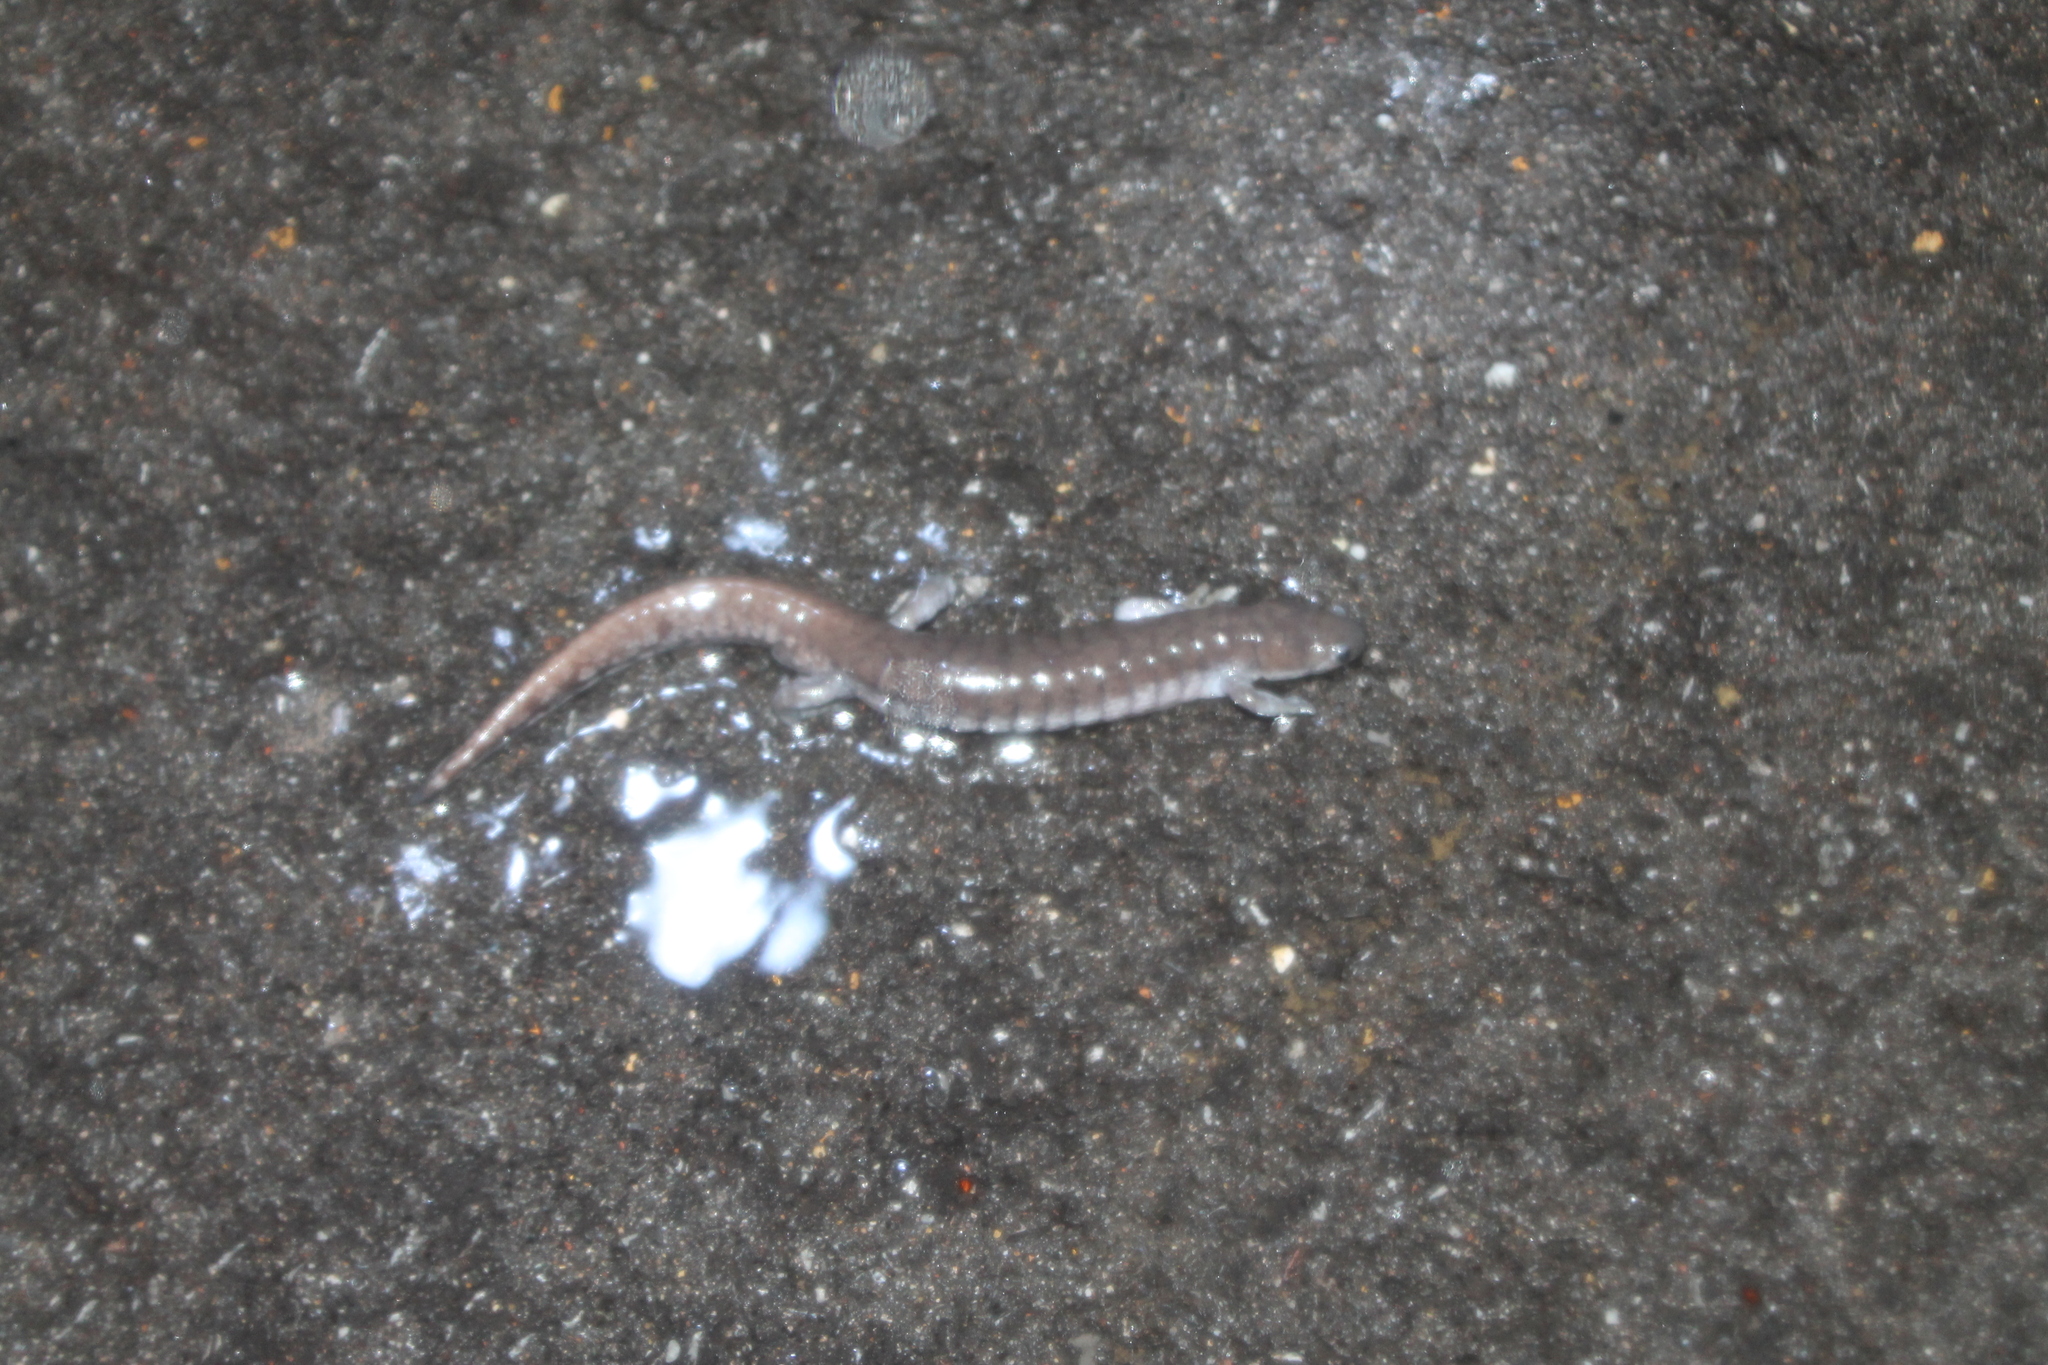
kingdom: Animalia
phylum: Chordata
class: Amphibia
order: Caudata
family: Ambystomatidae
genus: Ambystoma
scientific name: Ambystoma texanum
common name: Small-mouth salamander
